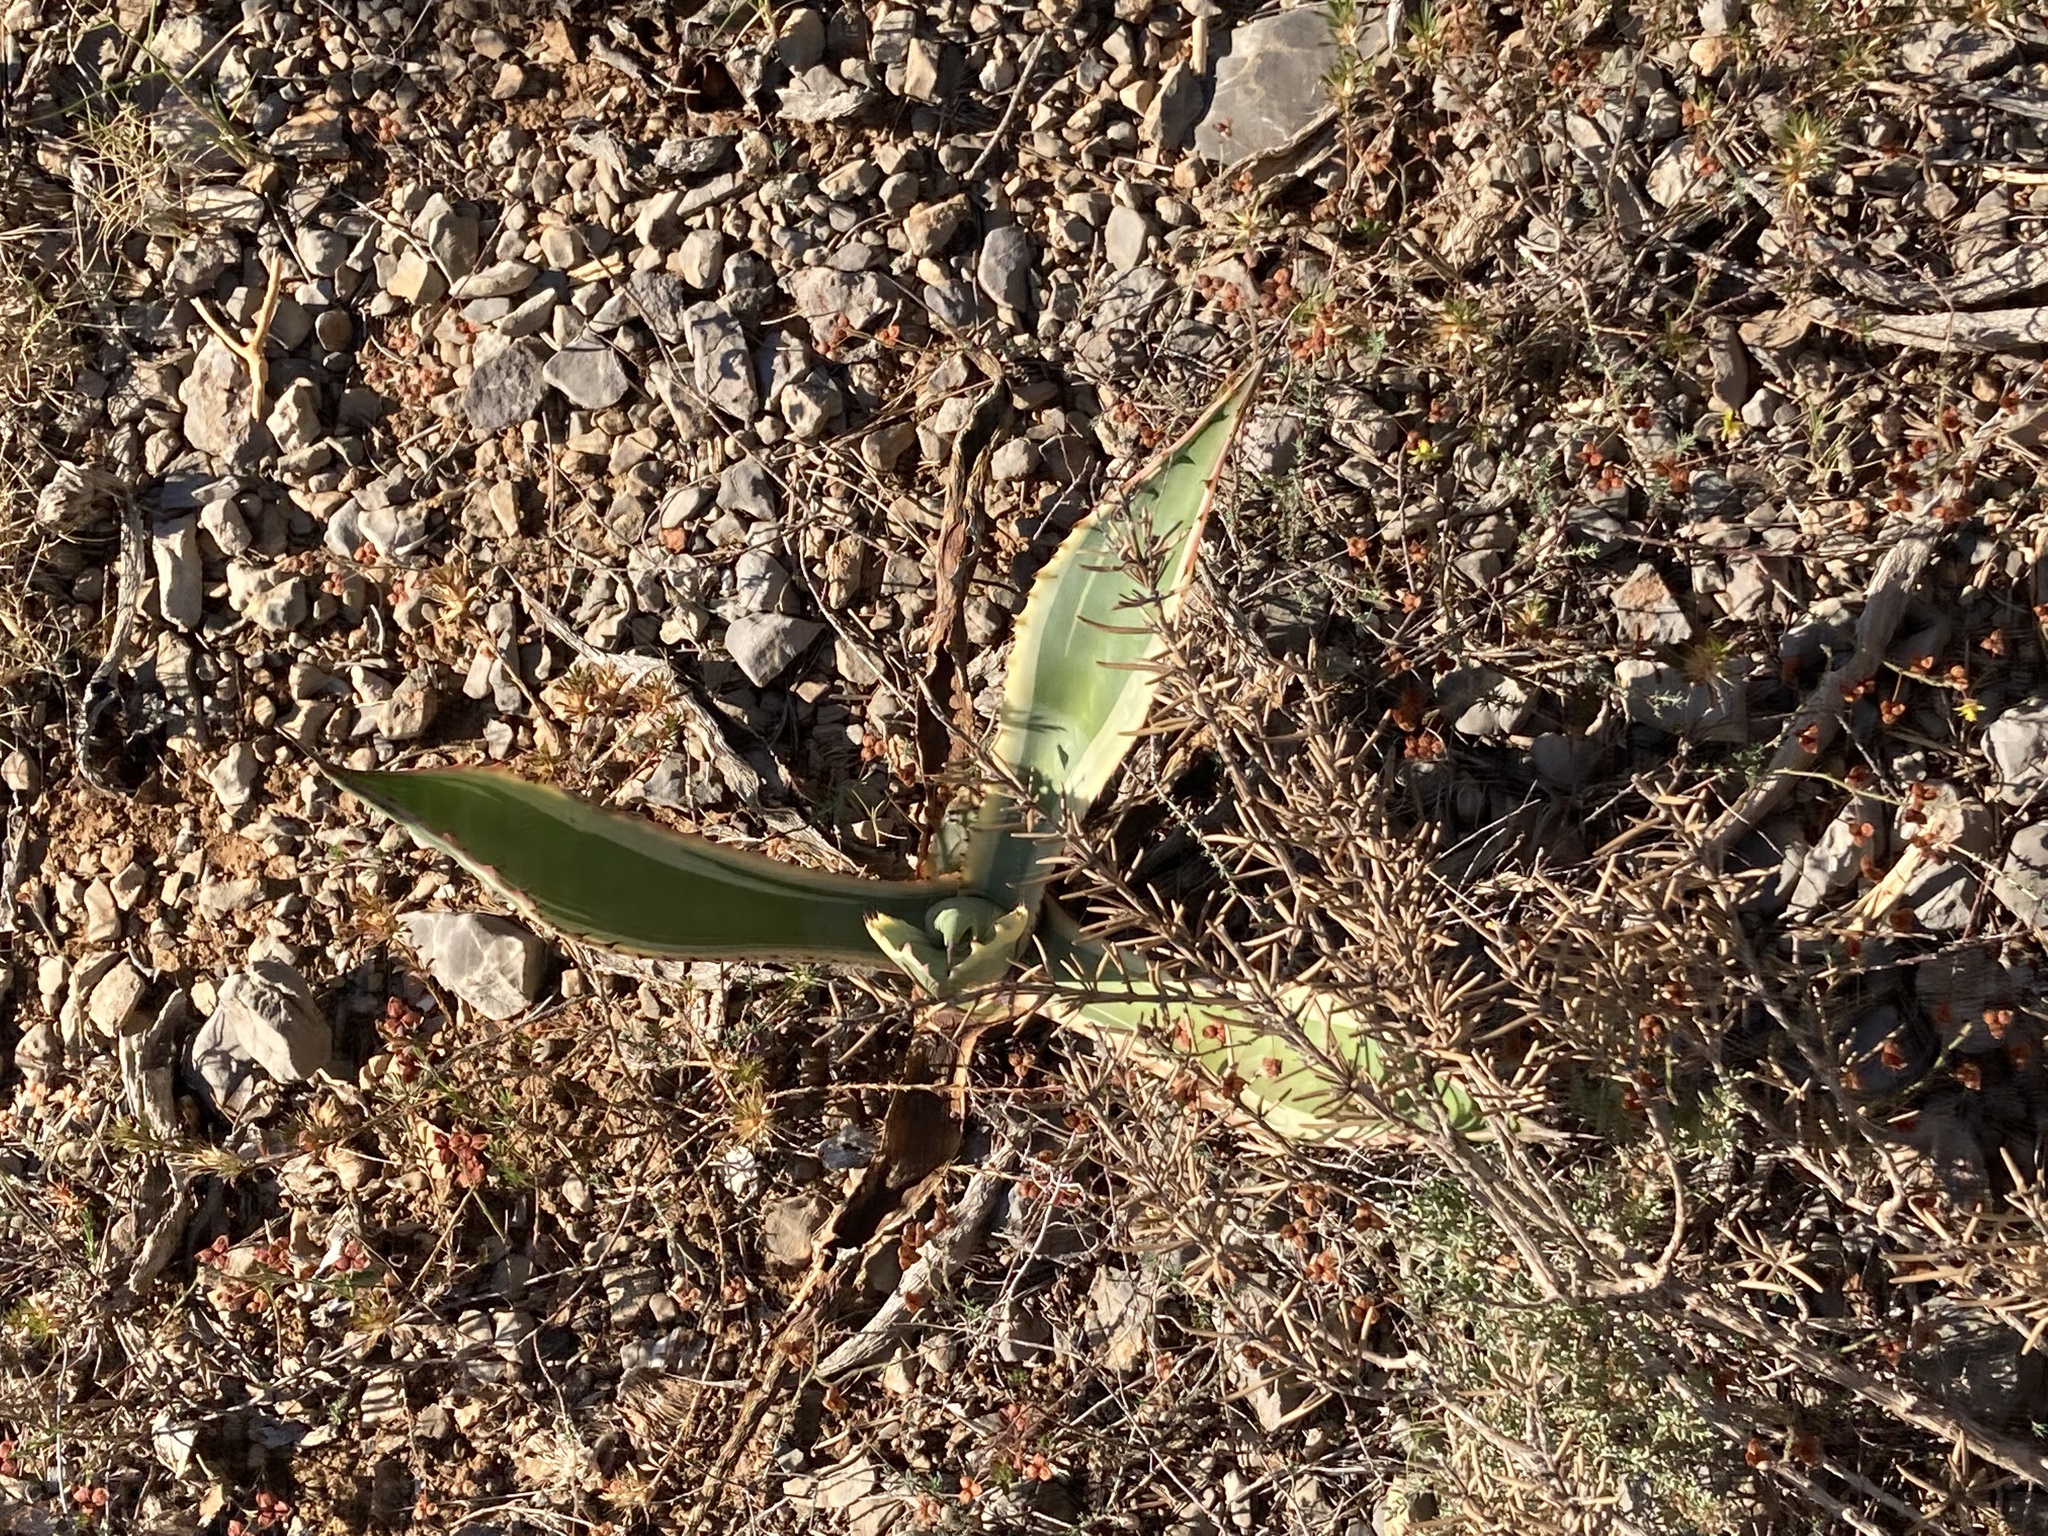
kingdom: Plantae
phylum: Tracheophyta
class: Liliopsida
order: Asparagales
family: Asparagaceae
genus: Agave
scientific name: Agave americana
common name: Centuryplant
